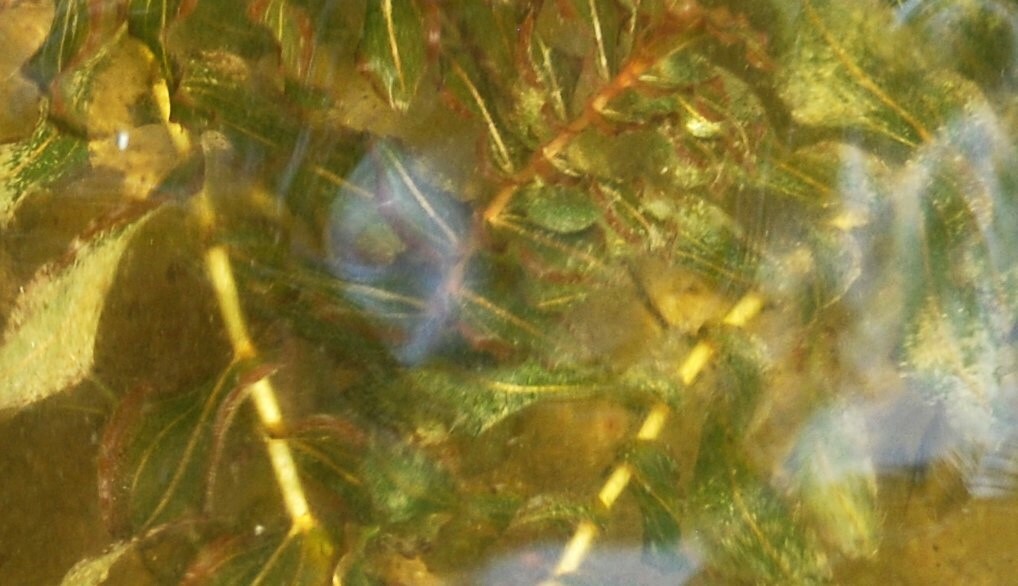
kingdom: Plantae
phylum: Tracheophyta
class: Liliopsida
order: Alismatales
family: Potamogetonaceae
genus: Potamogeton
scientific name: Potamogeton perfoliatus
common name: Perfoliate pondweed
